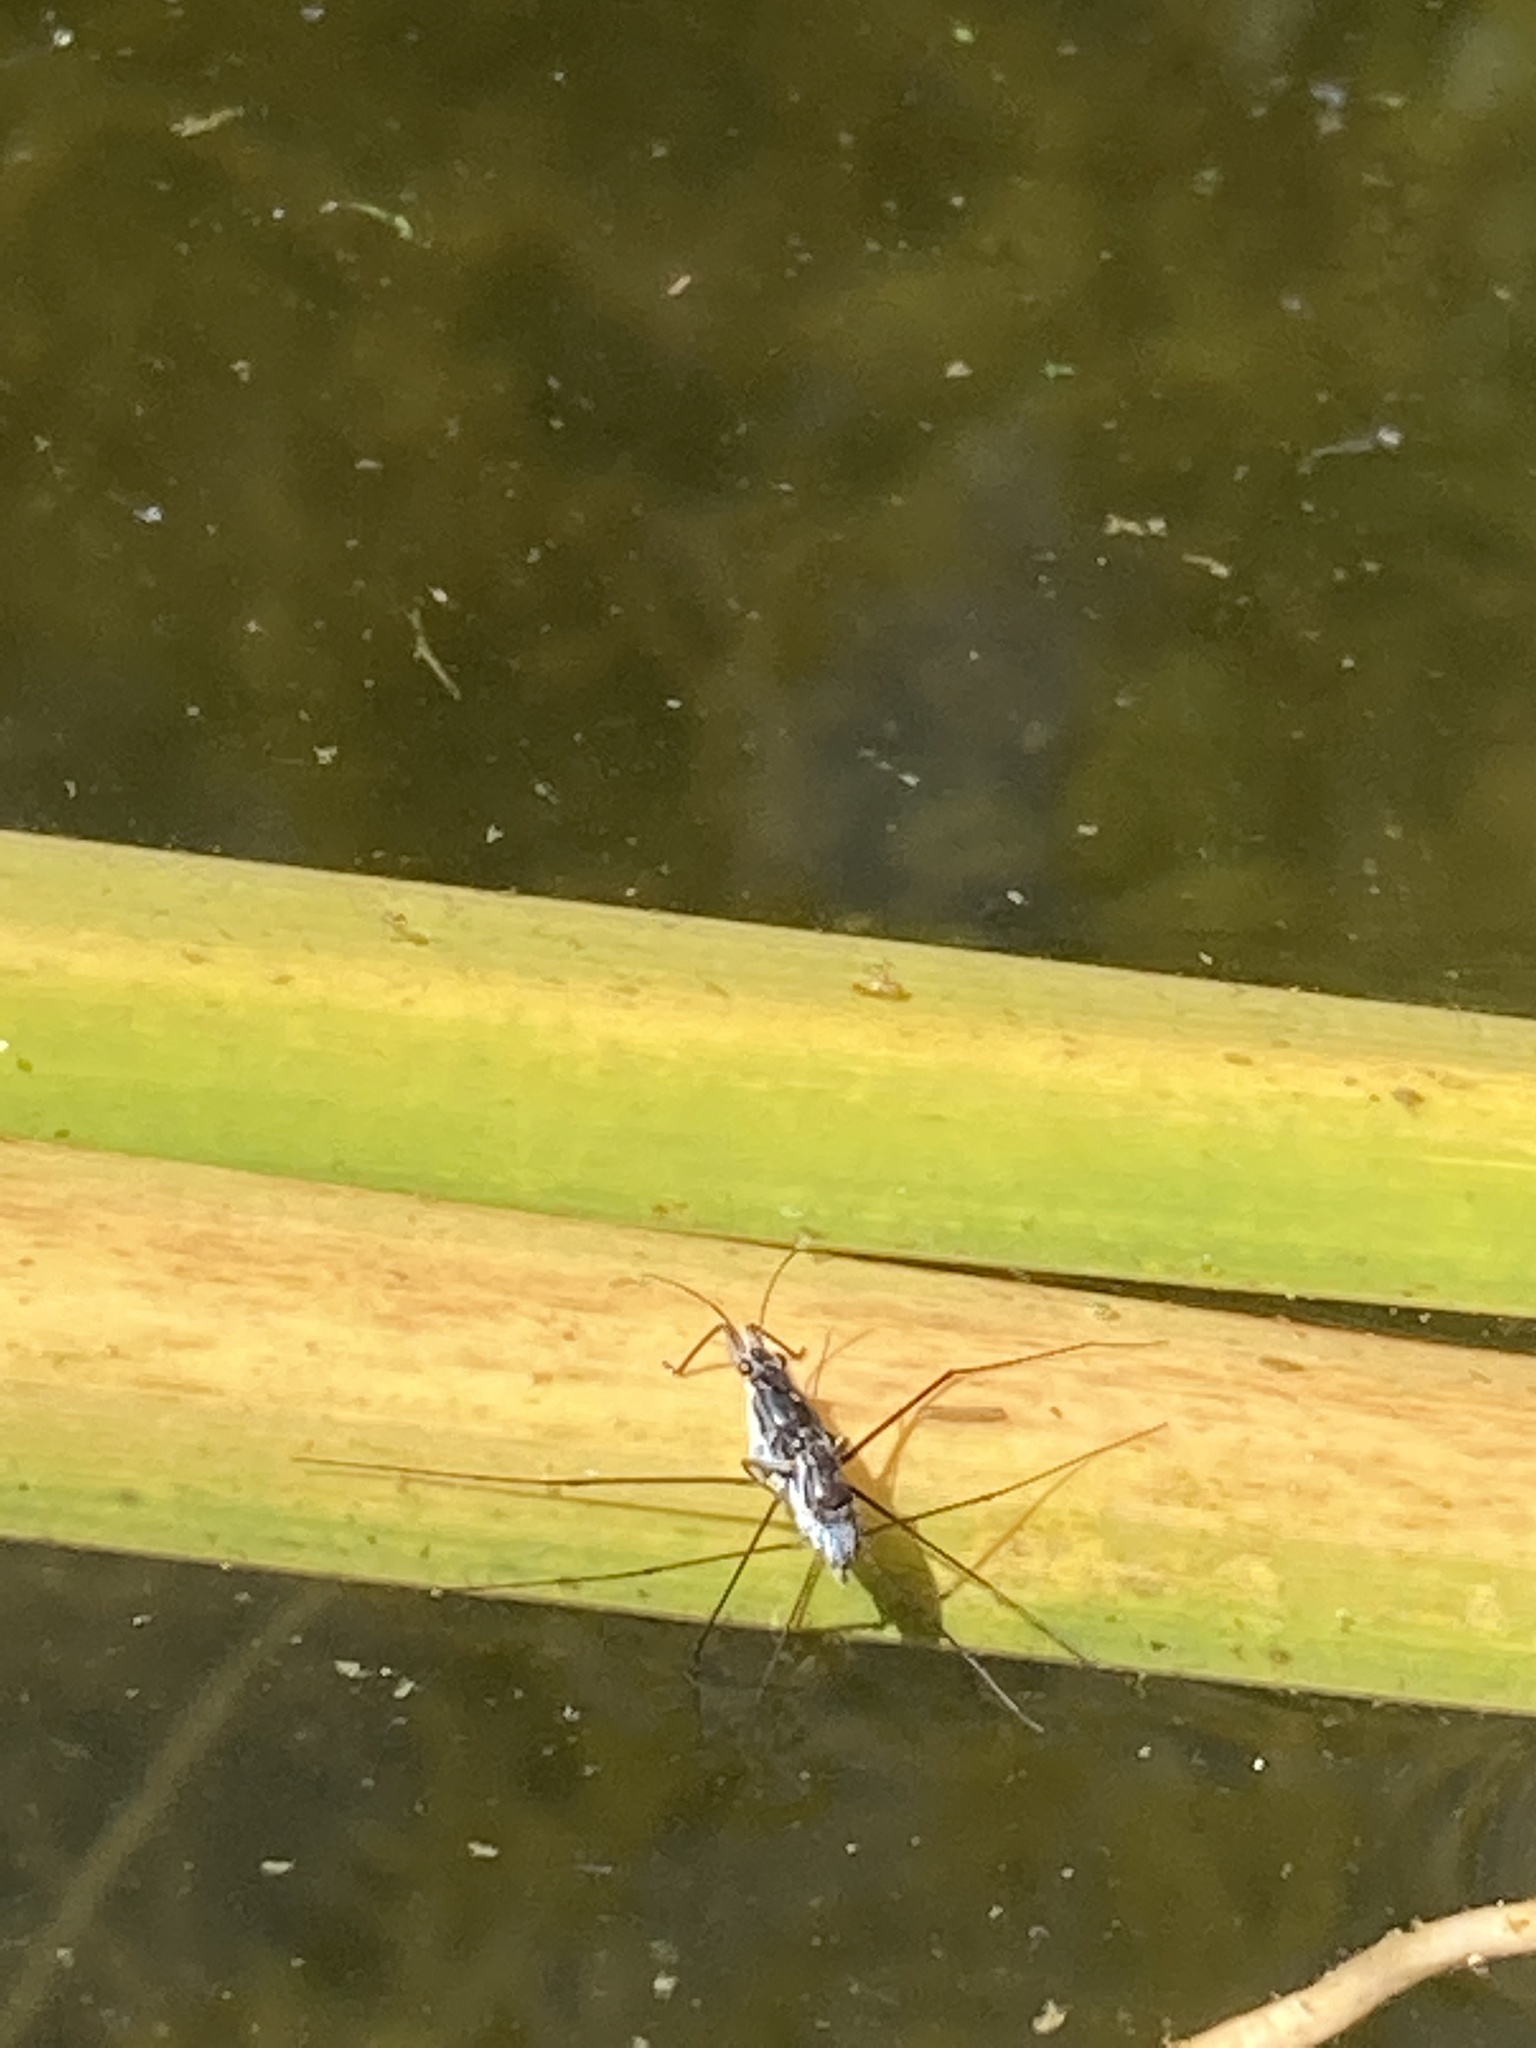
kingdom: Animalia
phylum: Arthropoda
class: Insecta
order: Hemiptera
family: Gerridae
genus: Neogerris
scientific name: Neogerris hesione
